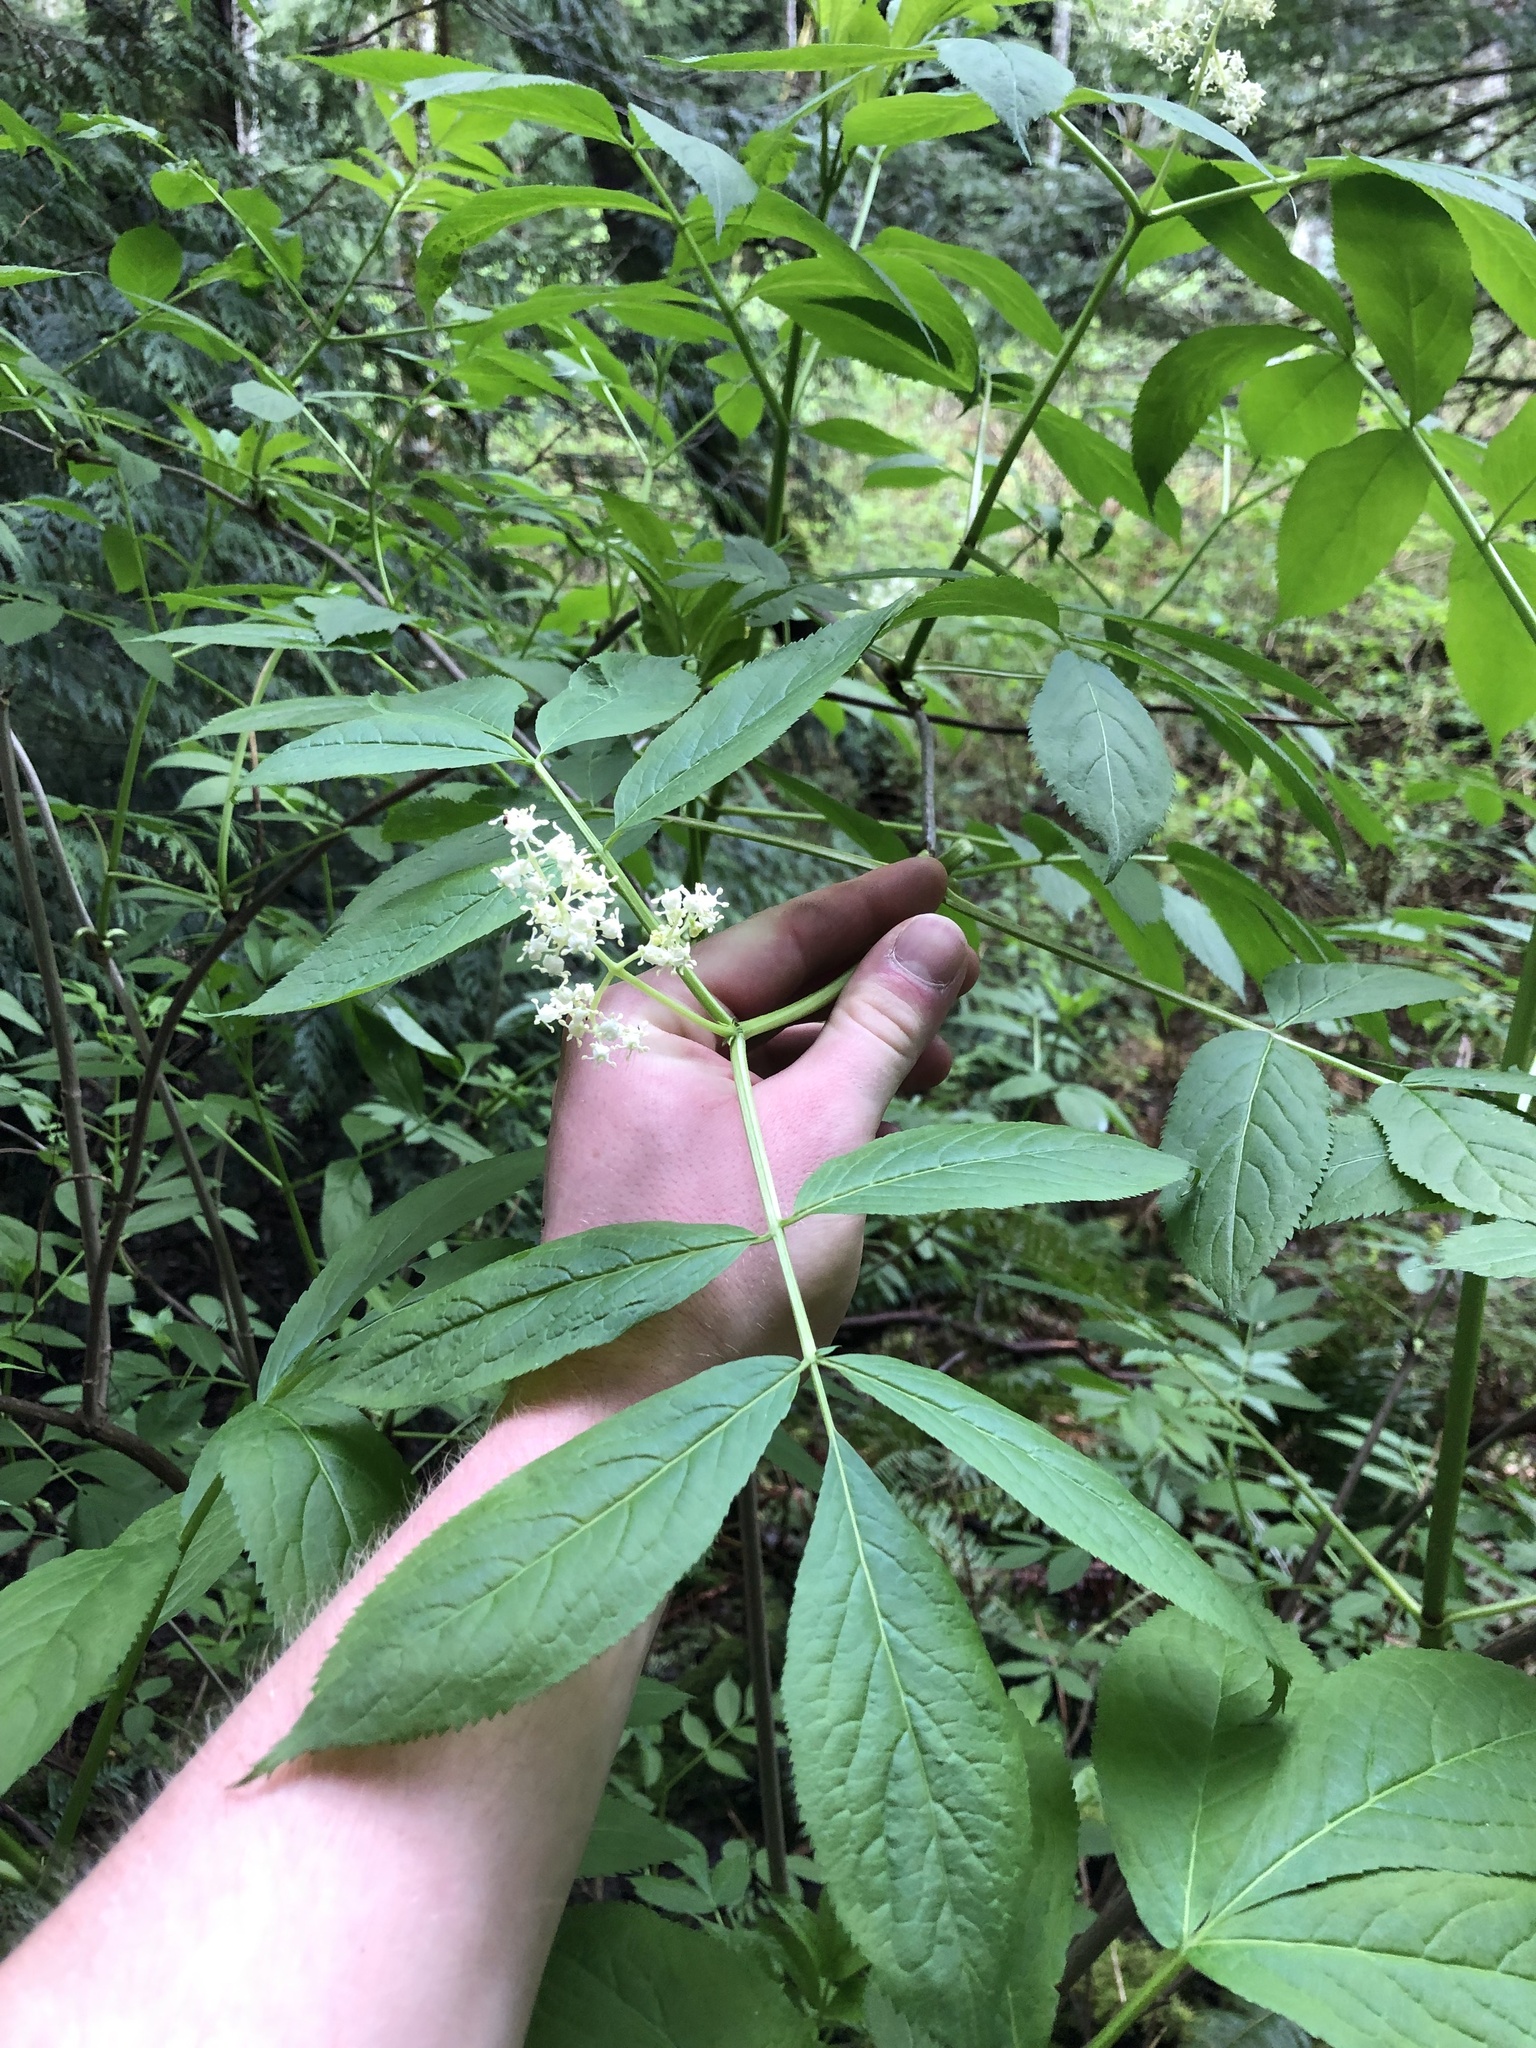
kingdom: Plantae
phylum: Tracheophyta
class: Magnoliopsida
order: Dipsacales
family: Viburnaceae
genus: Sambucus
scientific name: Sambucus racemosa
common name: Red-berried elder
